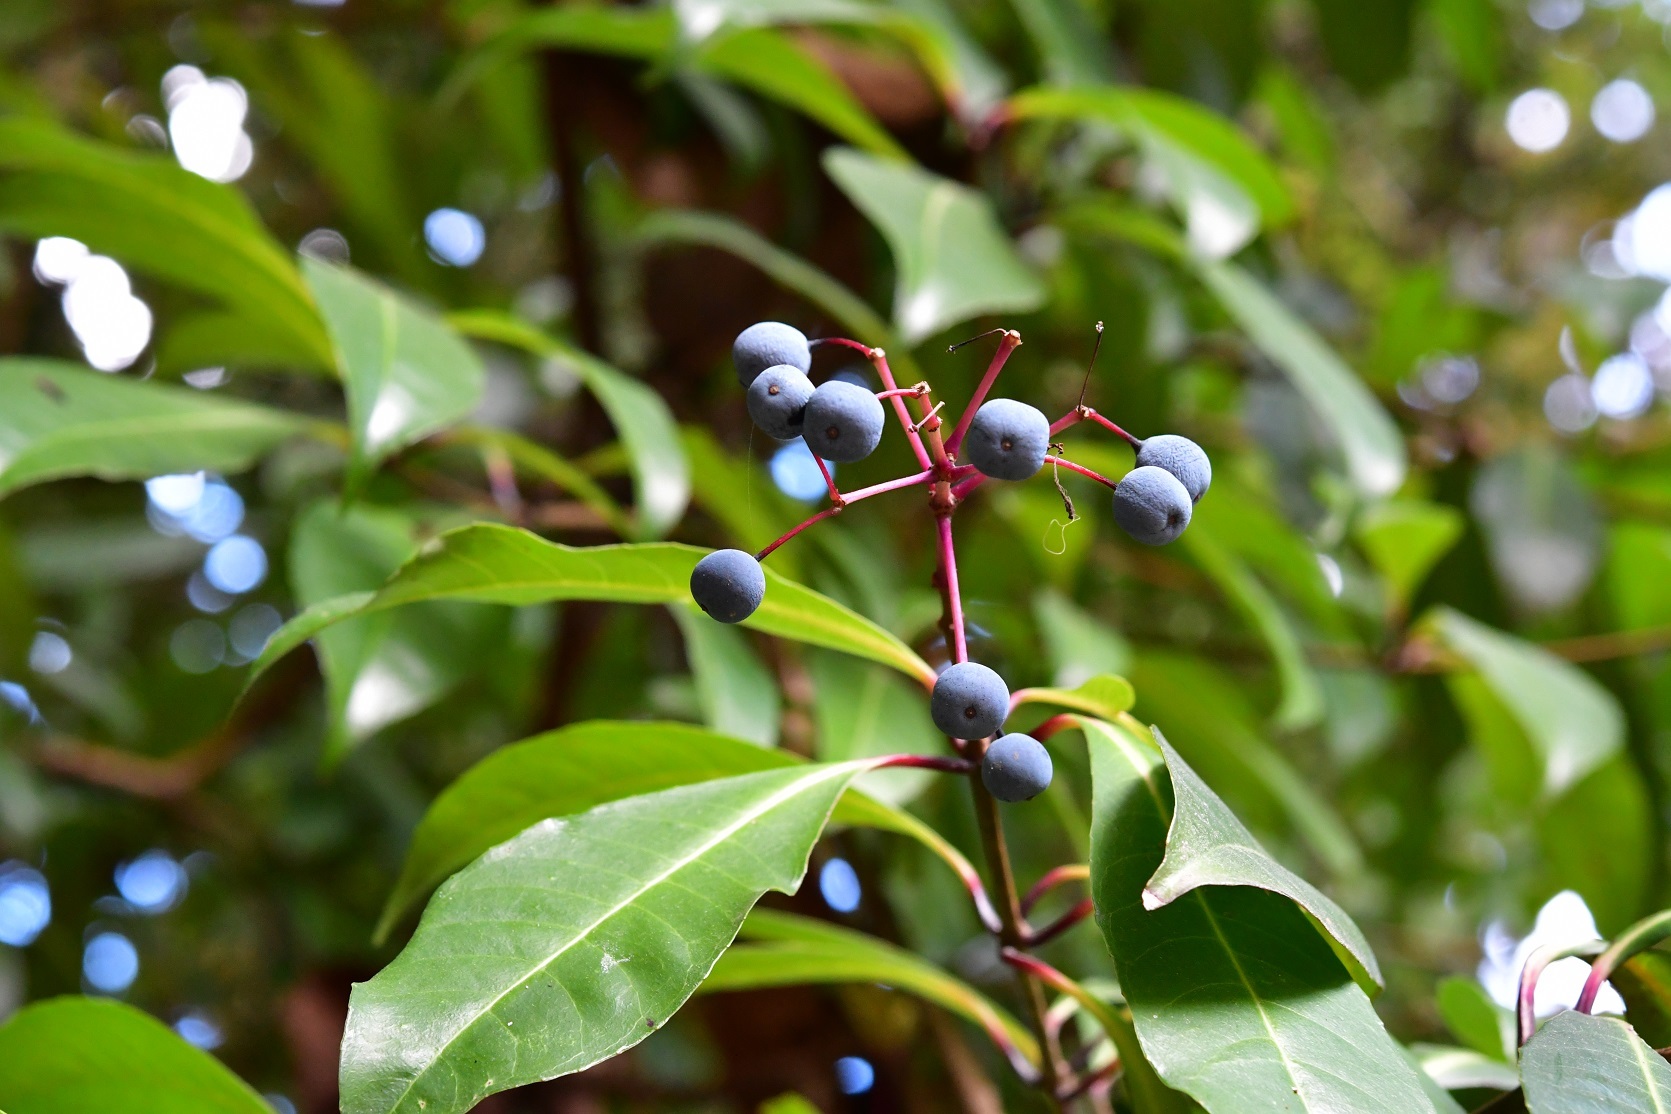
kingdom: Plantae
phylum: Tracheophyta
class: Magnoliopsida
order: Myrtales
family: Onagraceae
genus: Fuchsia
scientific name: Fuchsia paniculata
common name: Shrubby fuchsia
